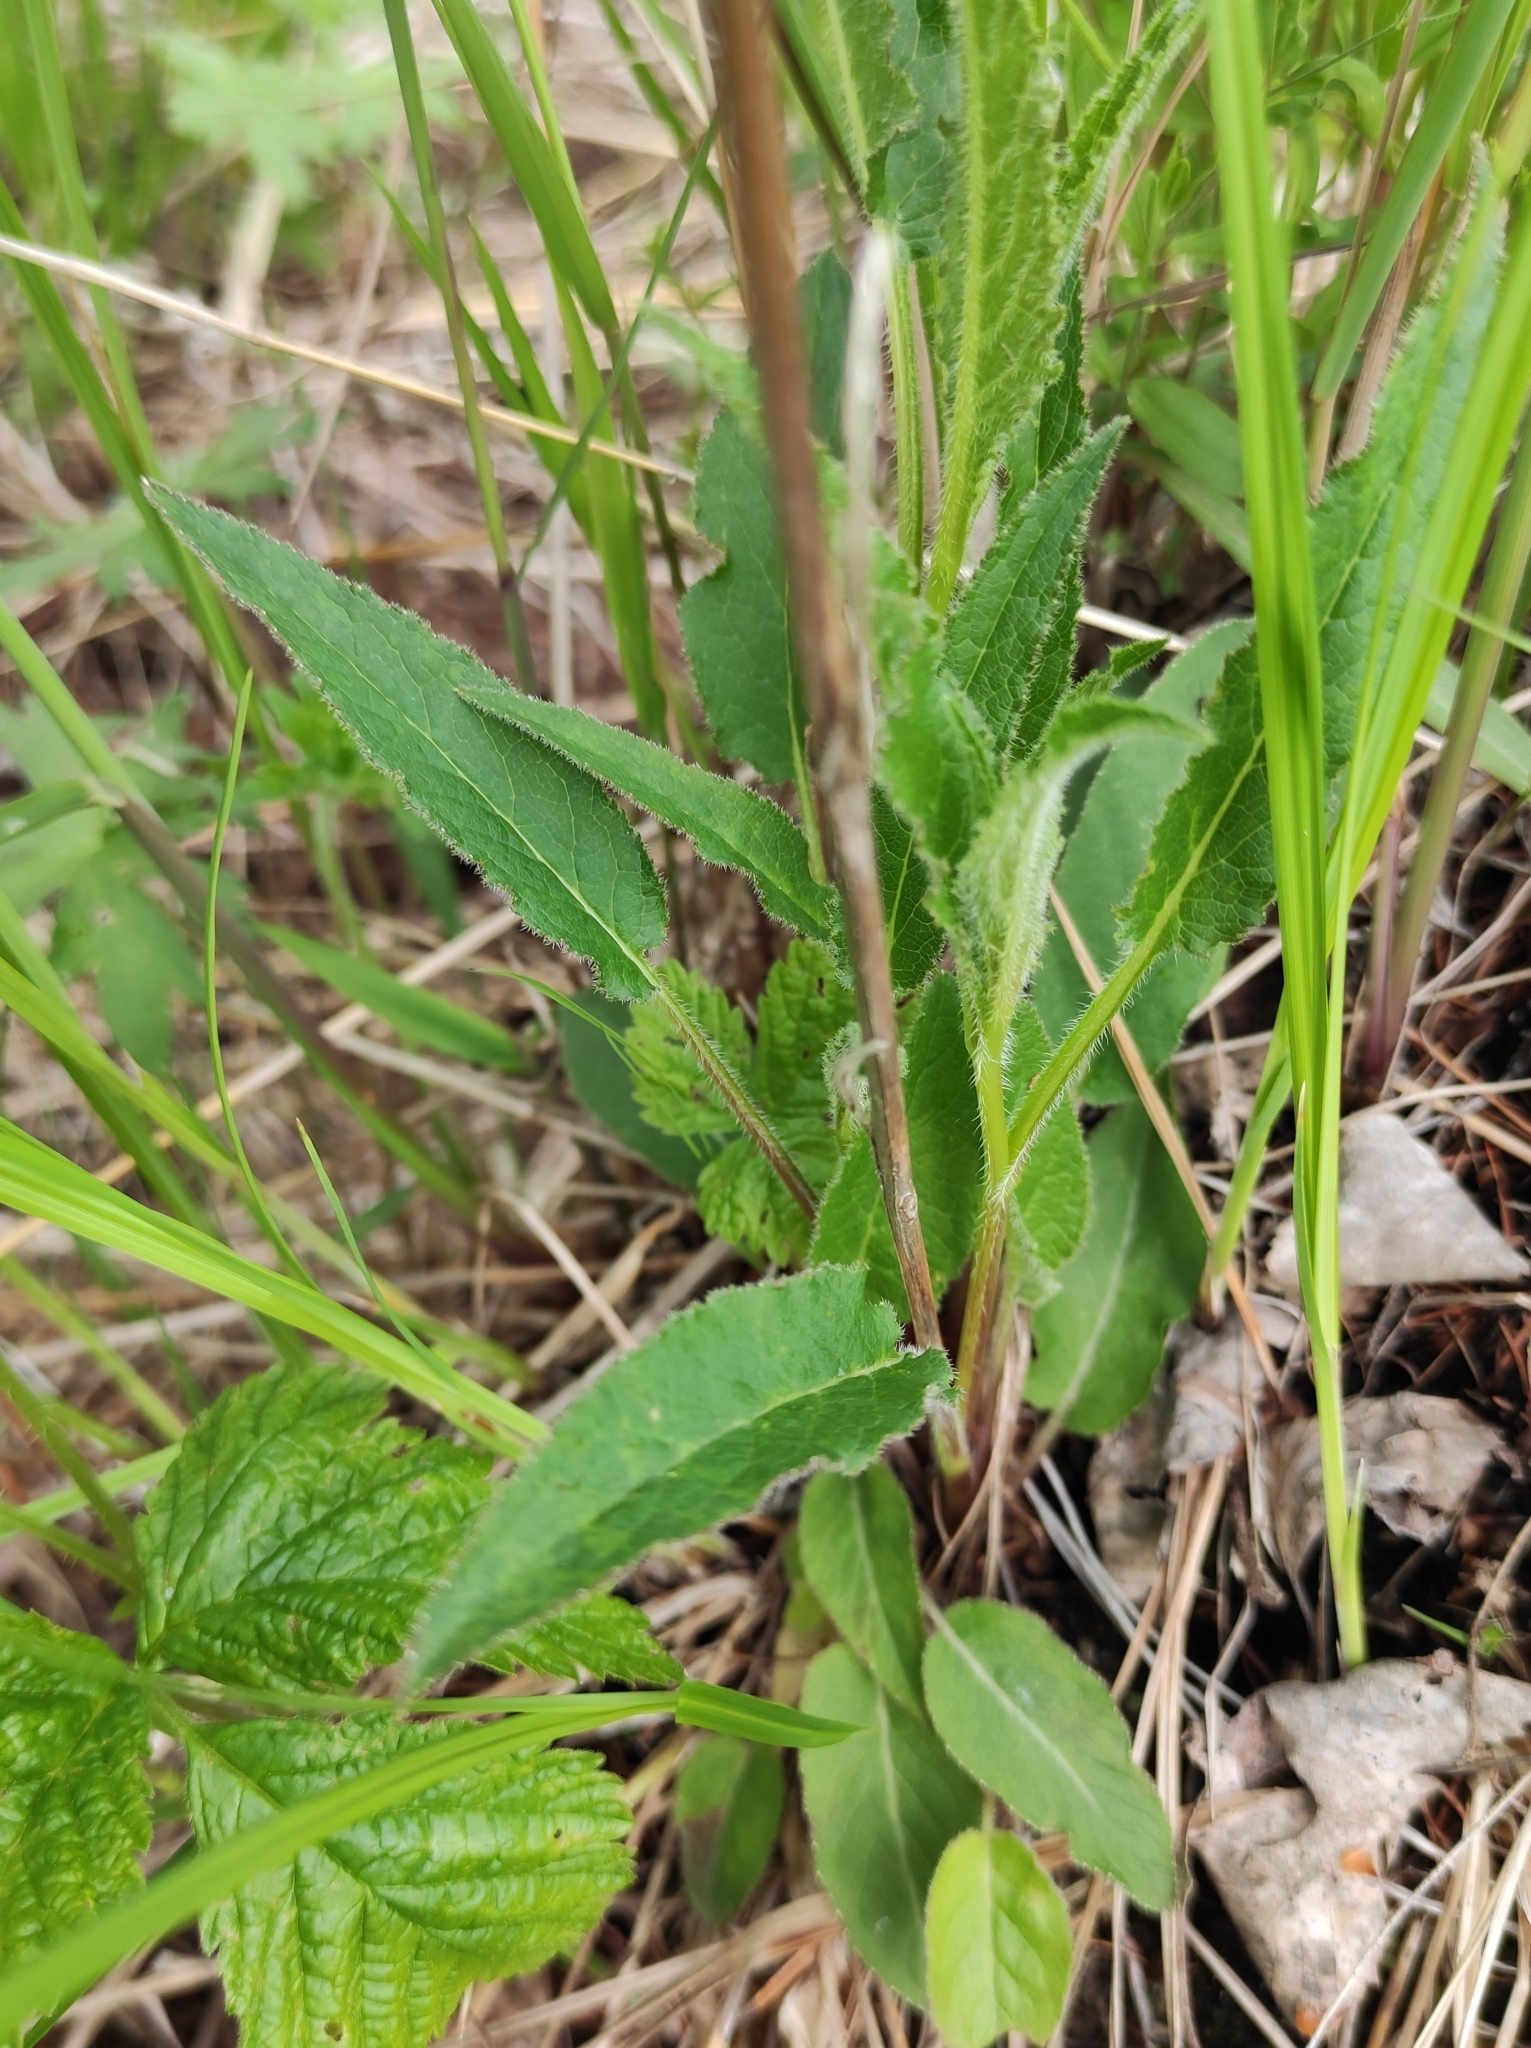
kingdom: Plantae
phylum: Tracheophyta
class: Magnoliopsida
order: Asterales
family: Campanulaceae
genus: Campanula
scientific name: Campanula glomerata
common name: Clustered bellflower
